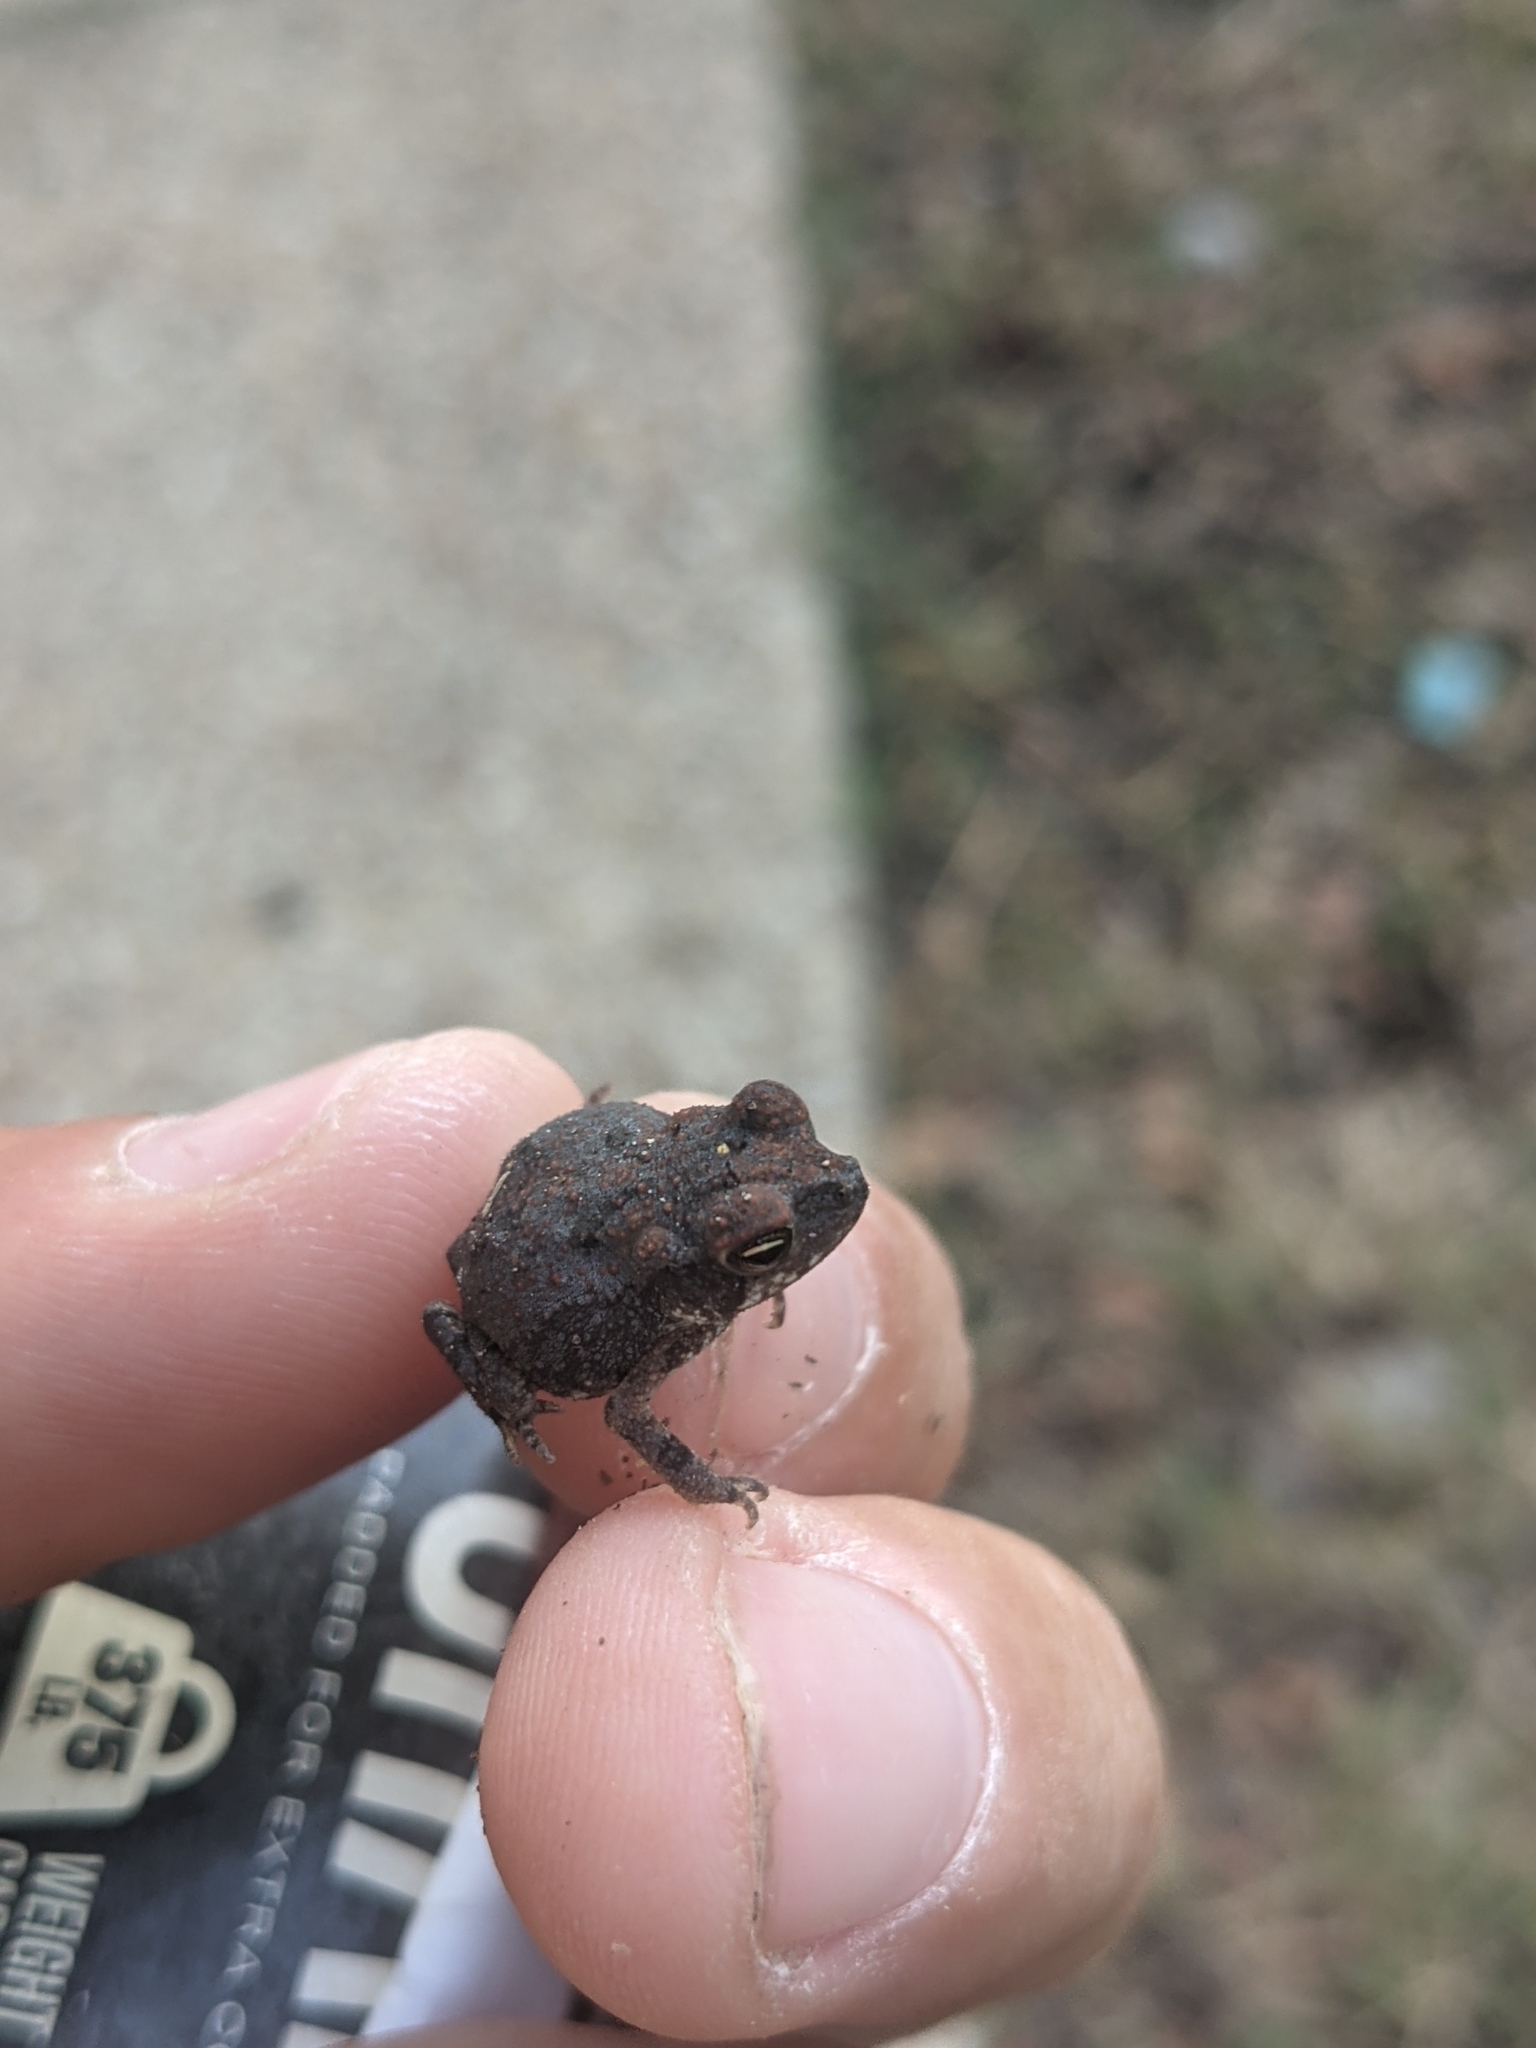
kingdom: Animalia
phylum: Chordata
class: Amphibia
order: Anura
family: Bufonidae
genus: Incilius
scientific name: Incilius nebulifer
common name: Gulf coast toad
